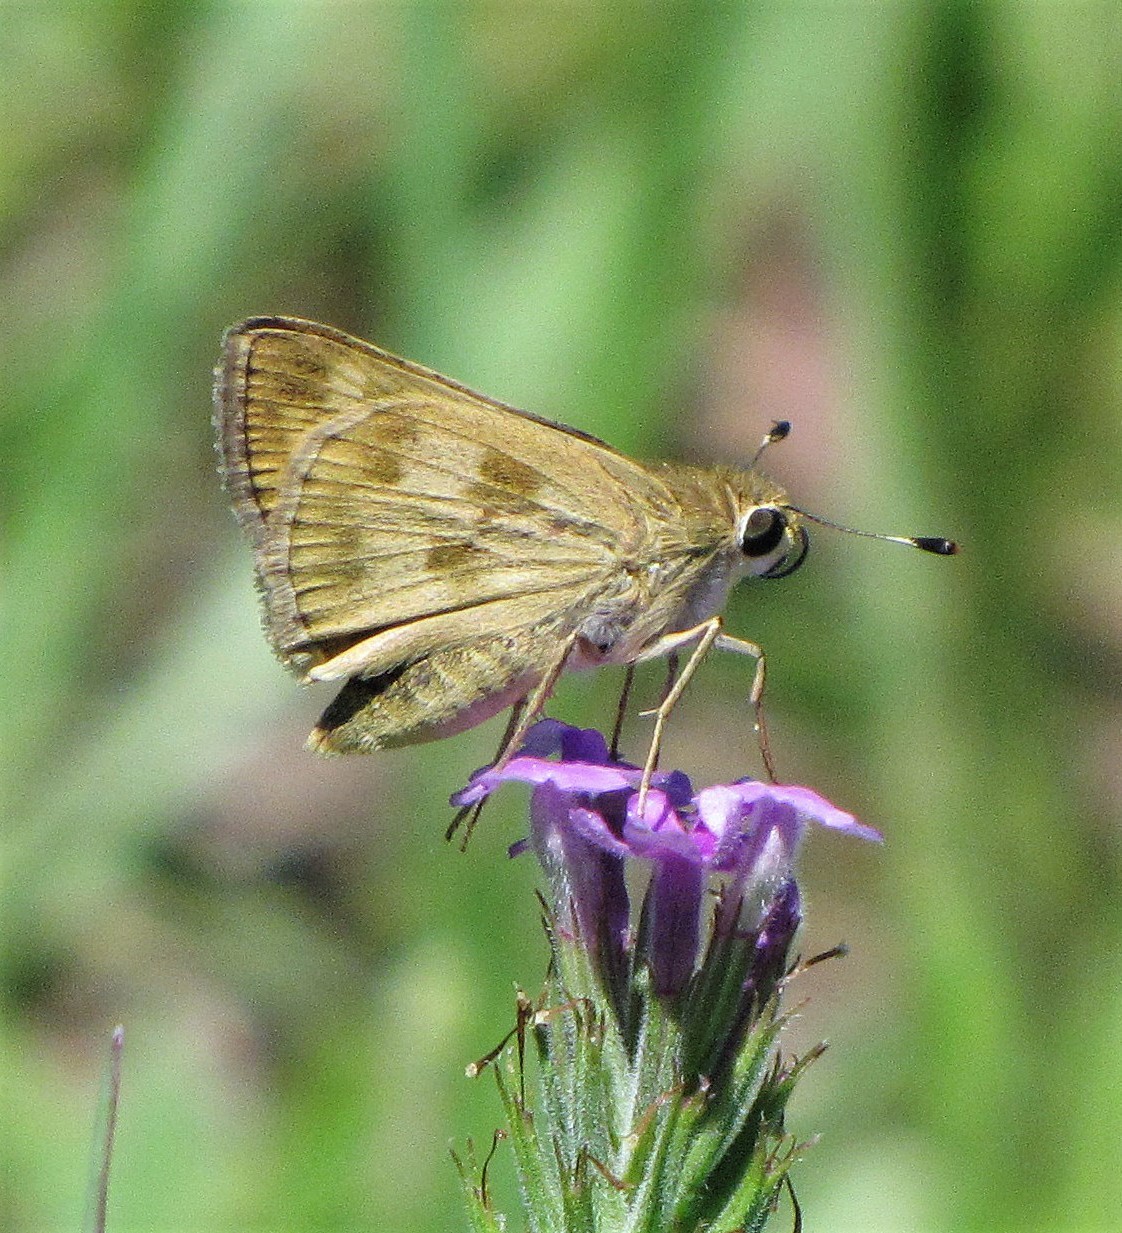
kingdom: Animalia
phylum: Arthropoda
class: Insecta
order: Lepidoptera
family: Hesperiidae
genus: Polites
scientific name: Polites vibex
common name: Whirlabout
